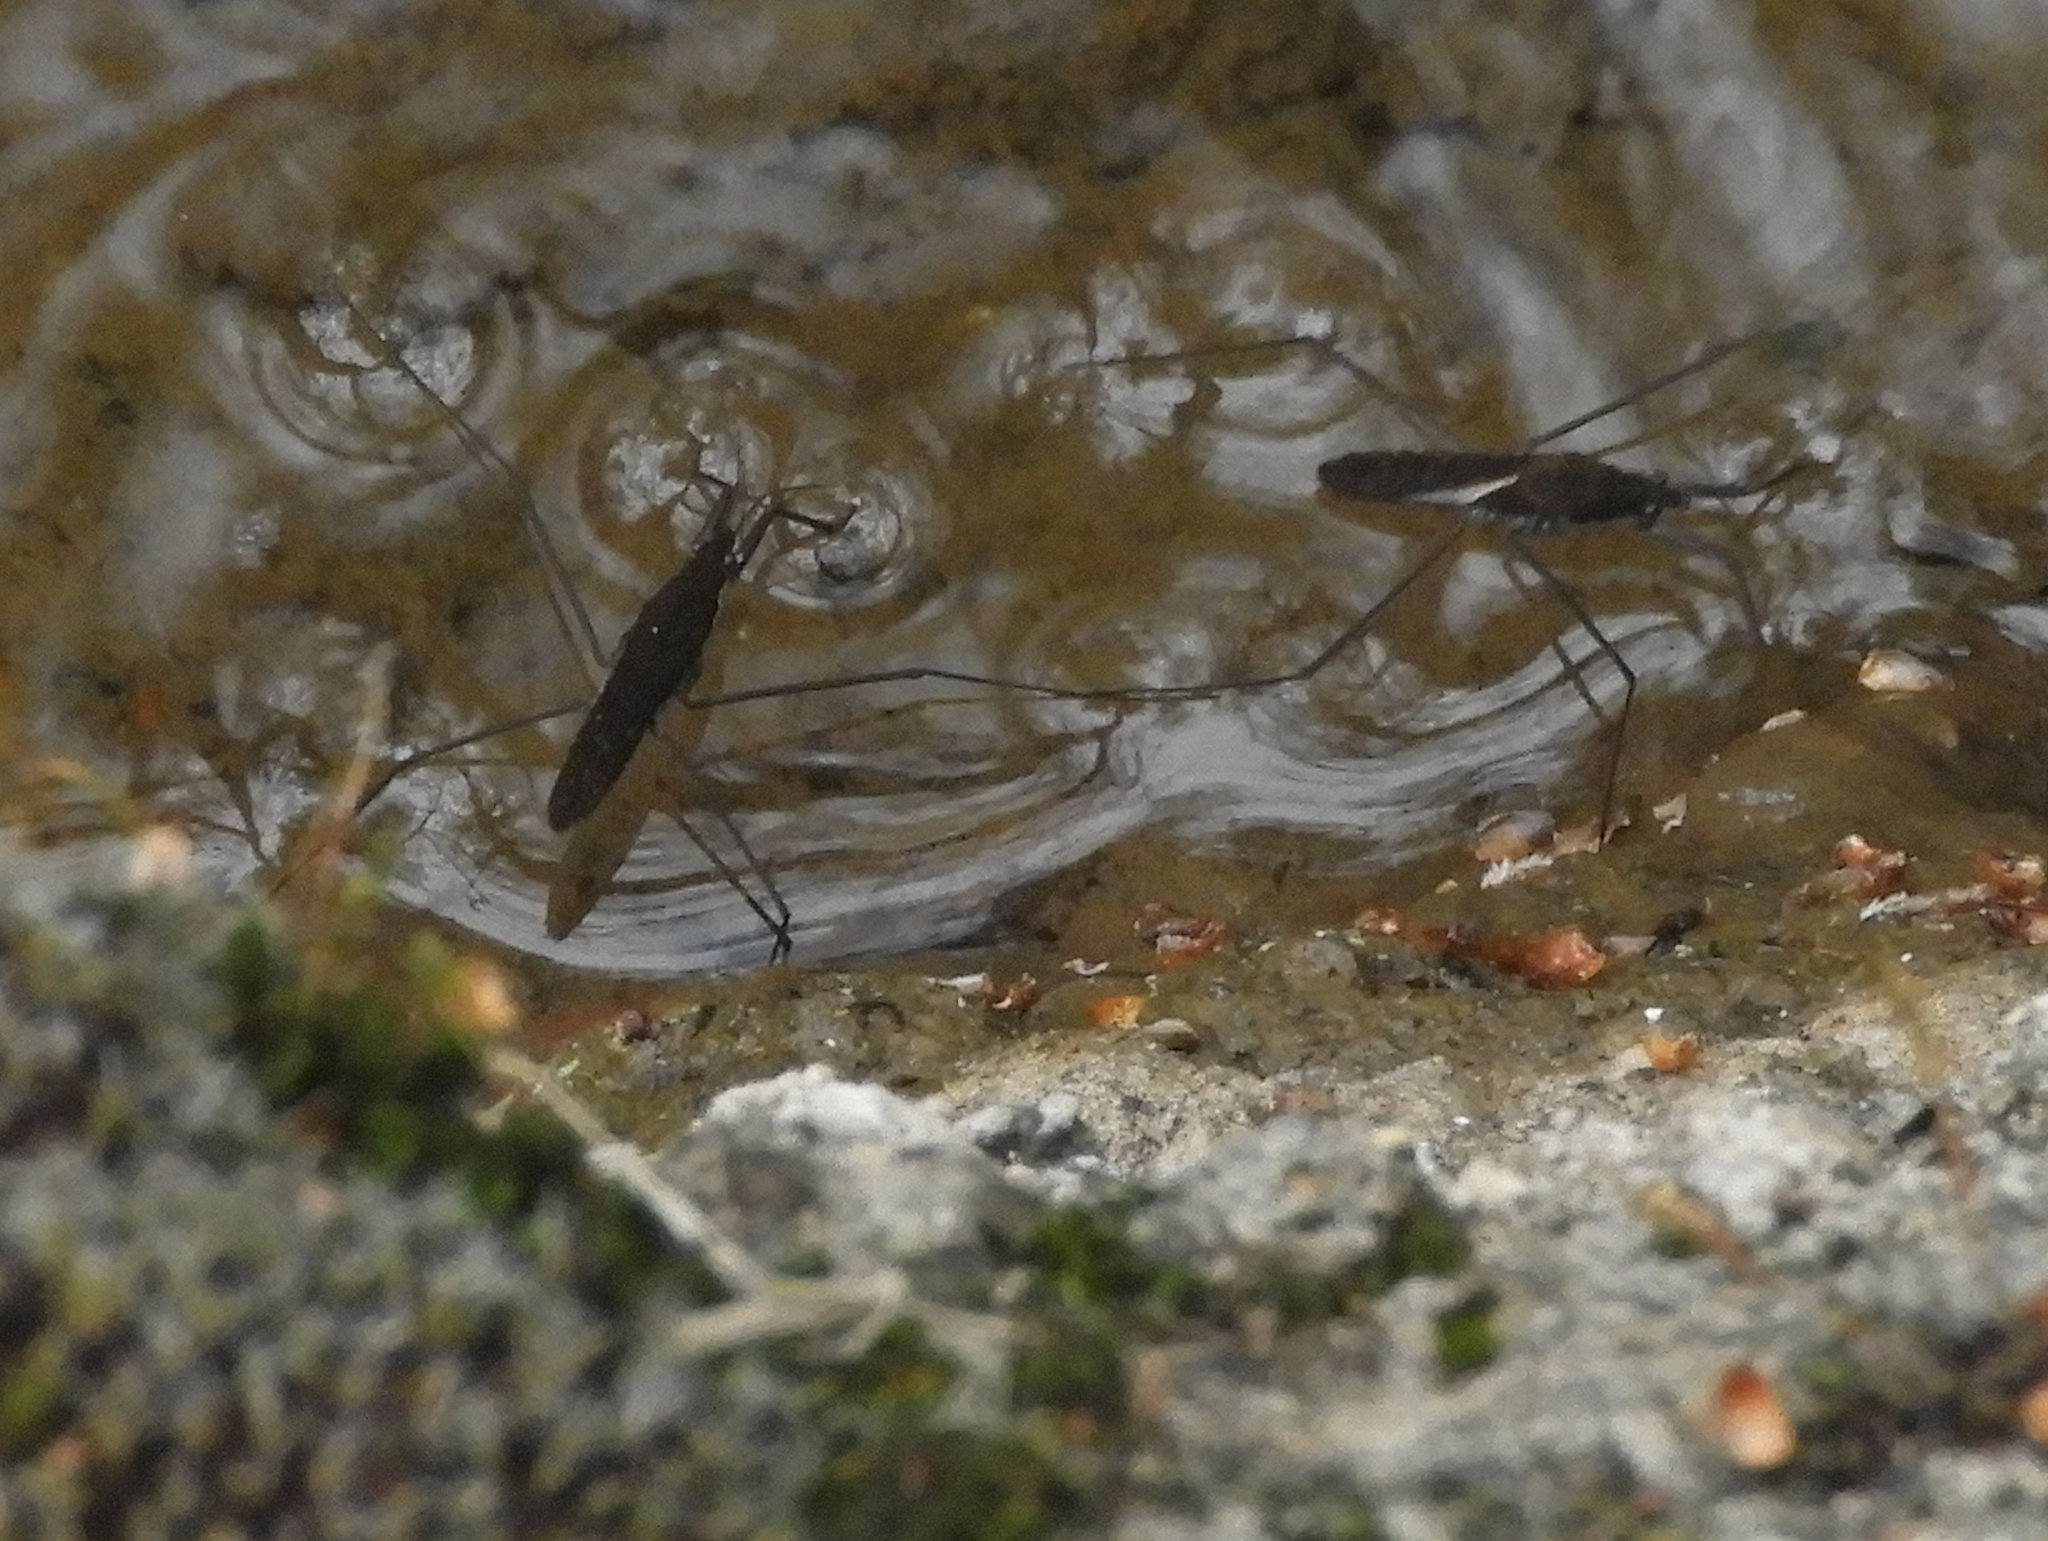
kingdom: Animalia
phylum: Arthropoda
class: Insecta
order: Hemiptera
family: Gerridae
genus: Aquarius
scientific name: Aquarius remigis
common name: Common water strider
